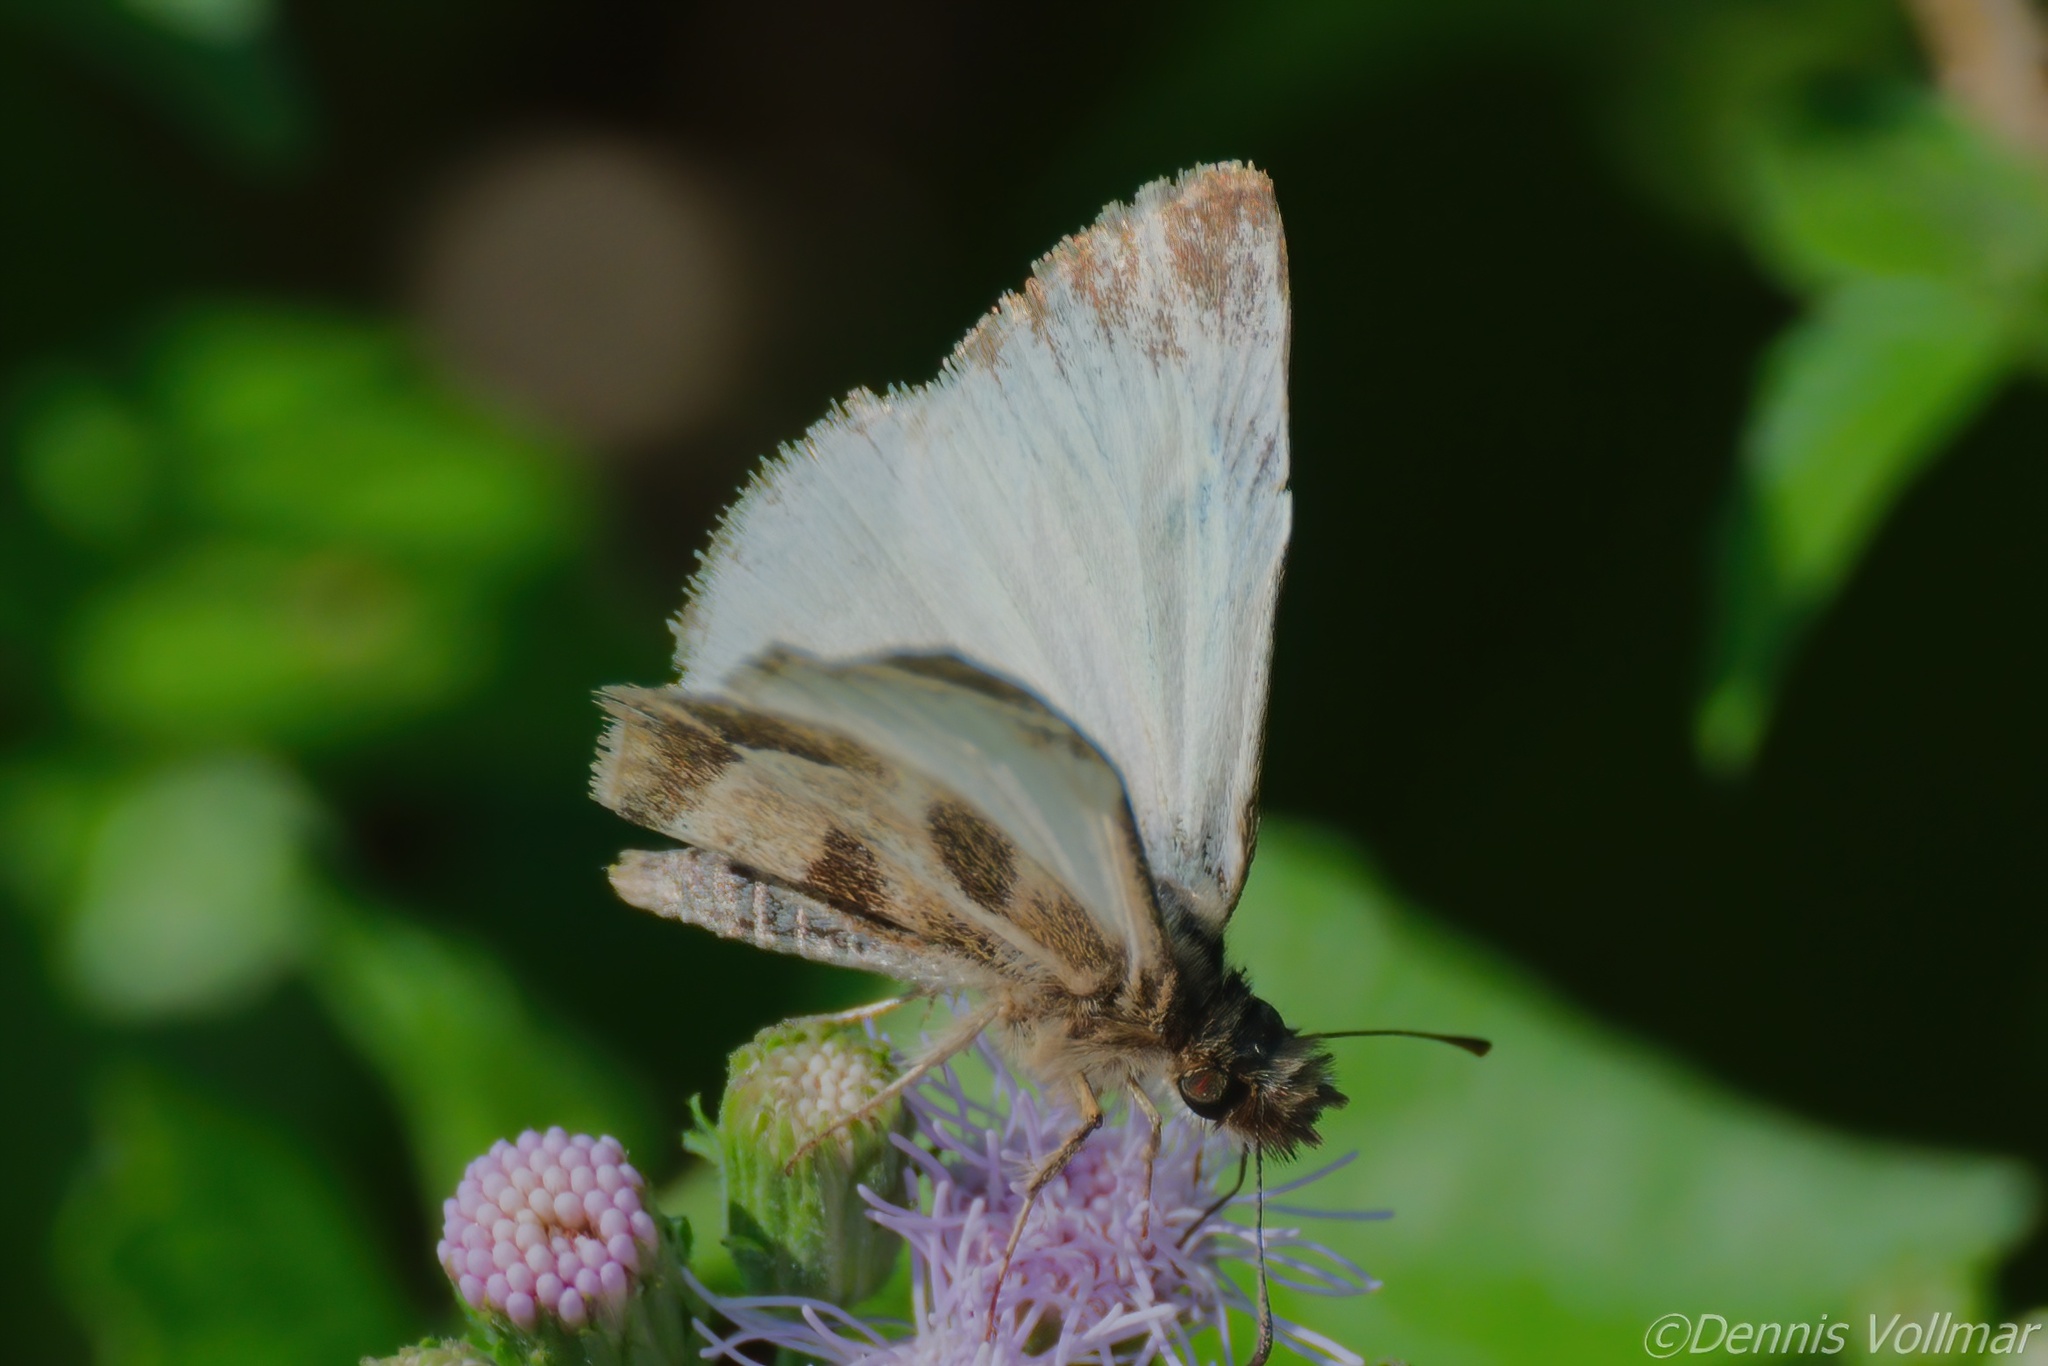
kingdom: Animalia
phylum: Arthropoda
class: Insecta
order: Lepidoptera
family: Hesperiidae
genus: Heliopetes
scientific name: Heliopetes macaira
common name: Turk's-cap white-skipper
